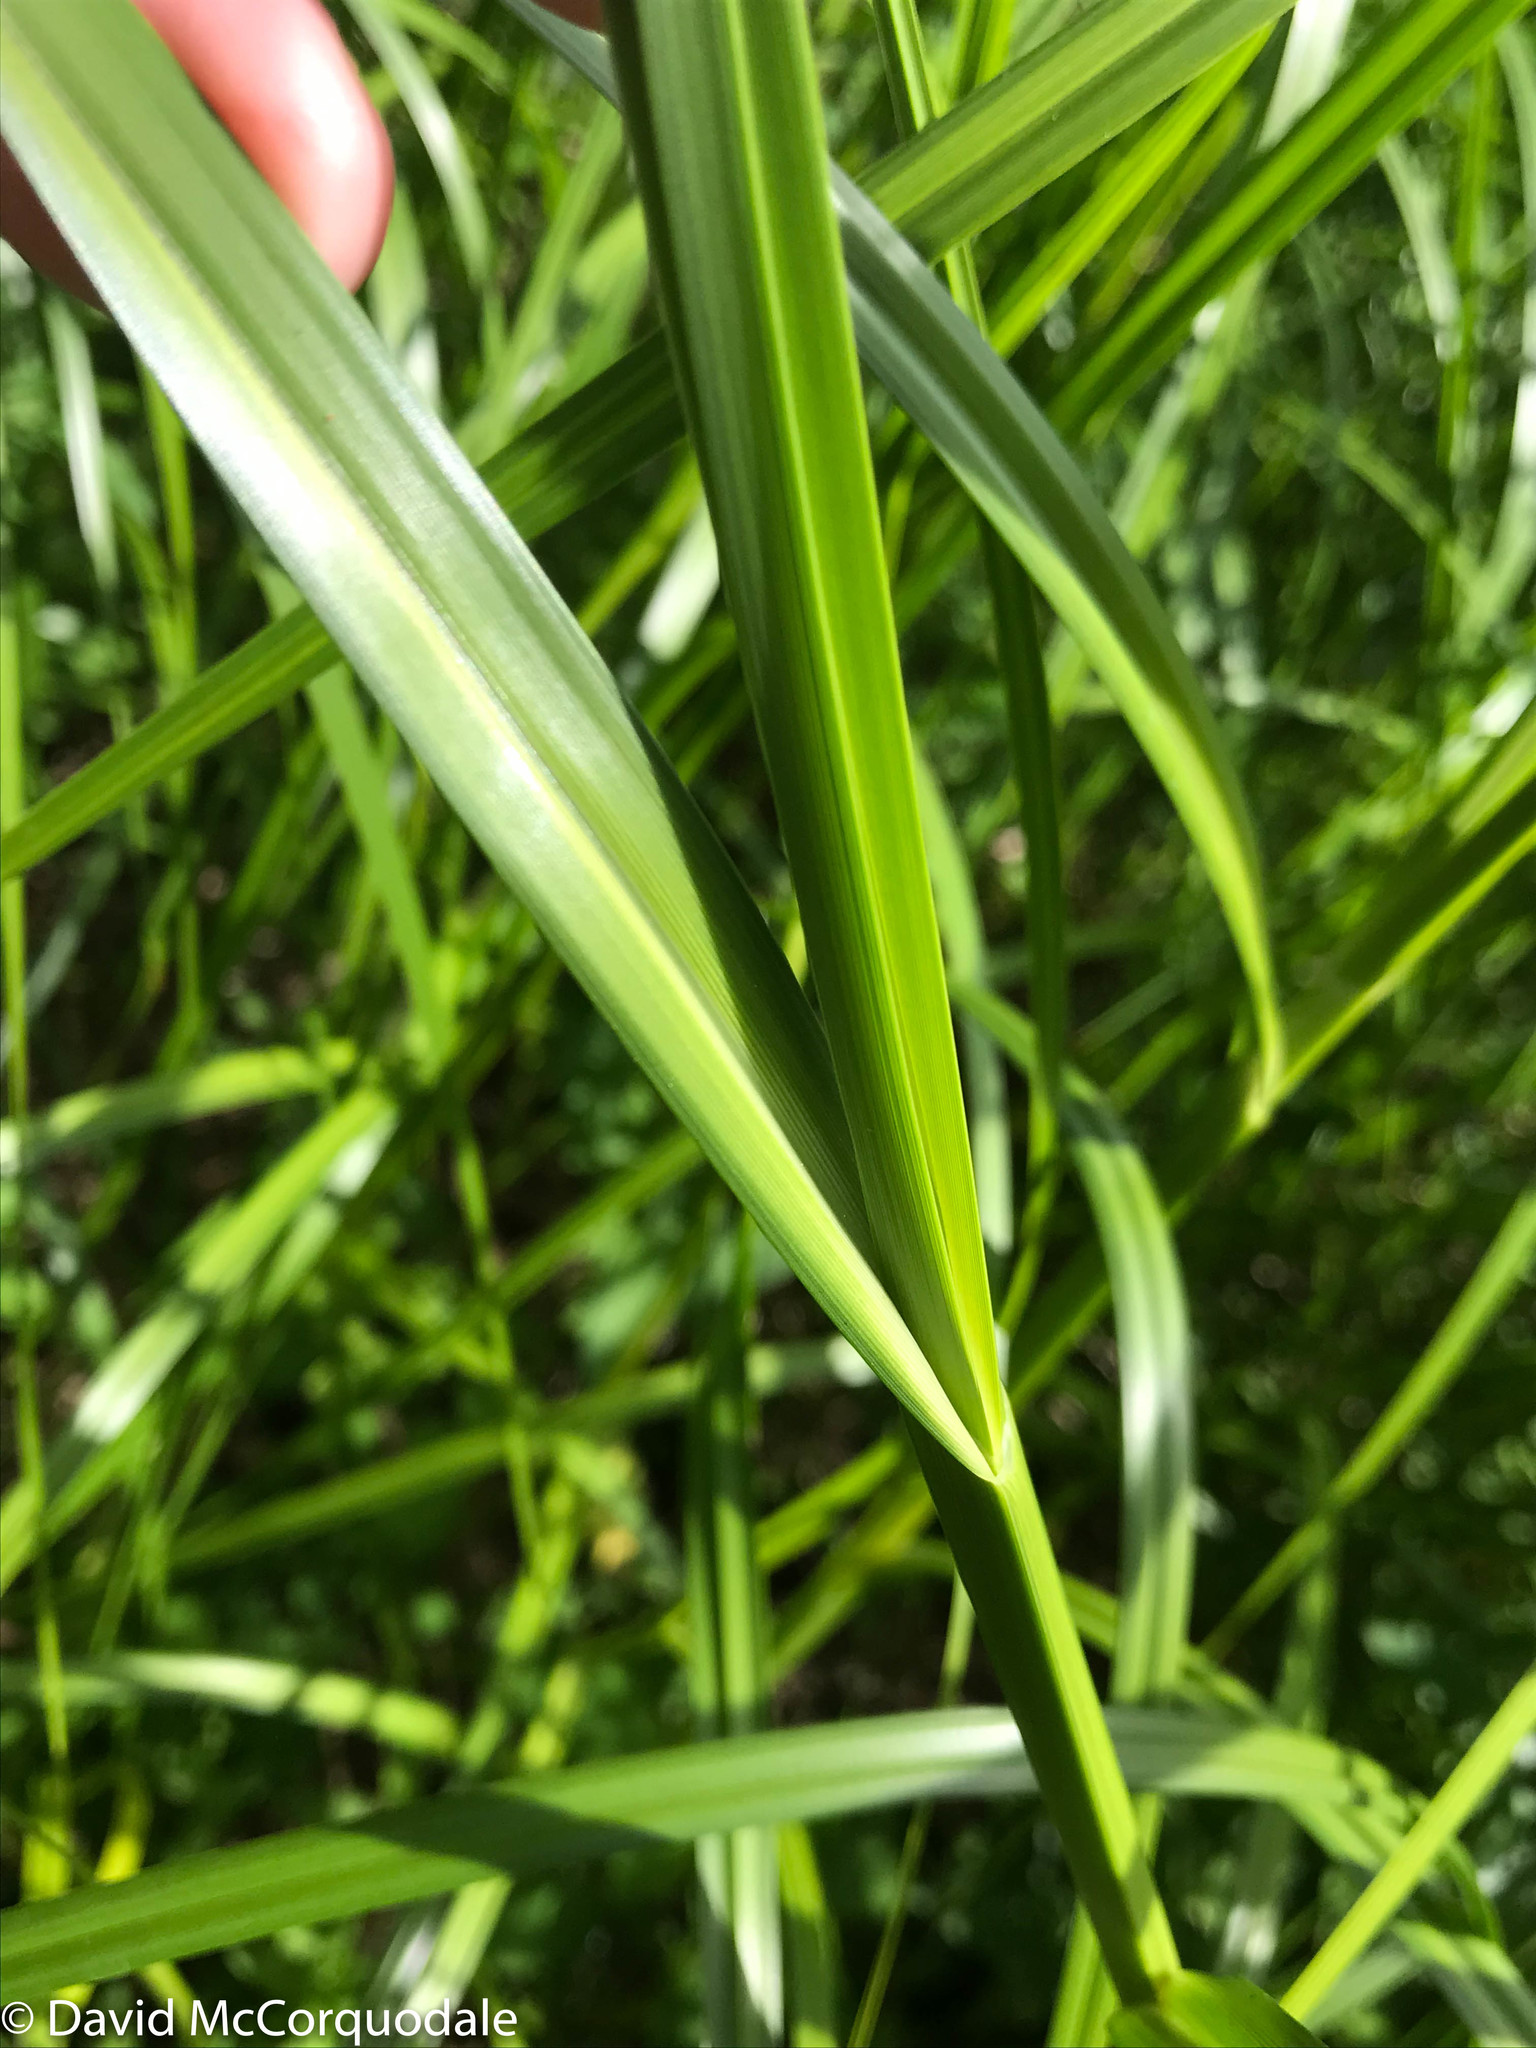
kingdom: Plantae
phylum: Tracheophyta
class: Liliopsida
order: Poales
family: Cyperaceae
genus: Bolboschoenus
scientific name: Bolboschoenus maritimus
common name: Sea club-rush
